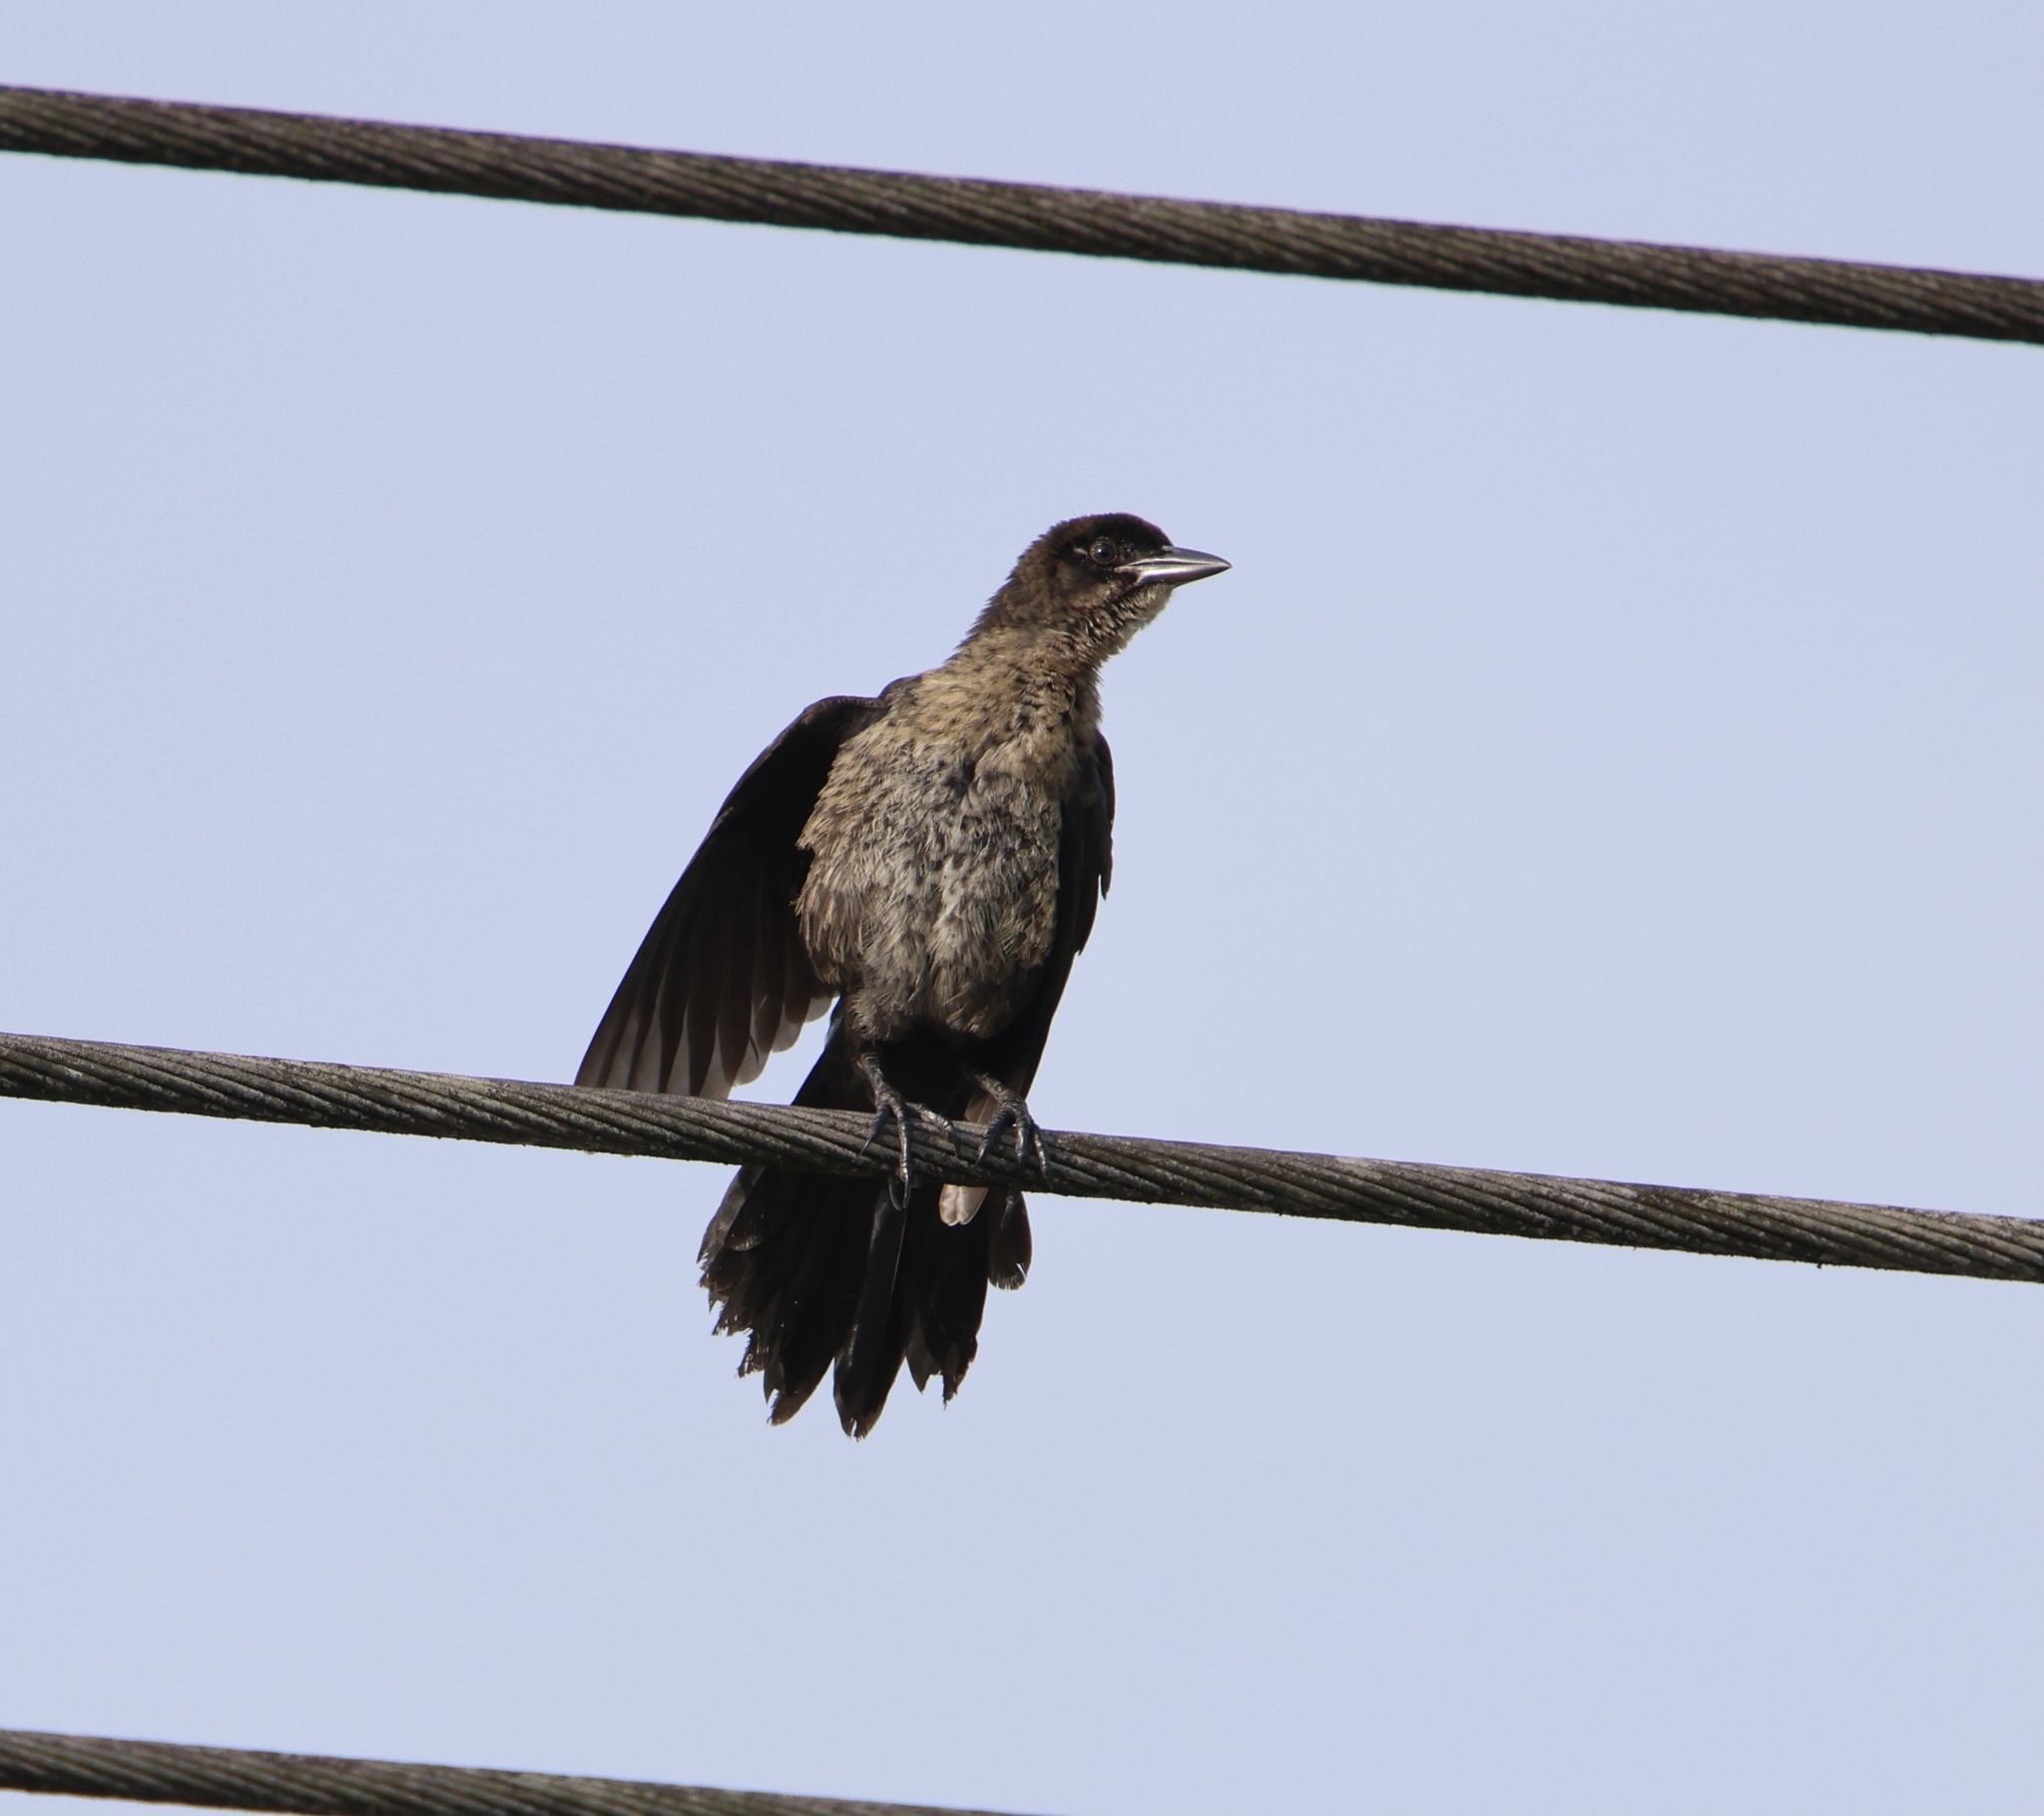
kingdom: Animalia
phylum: Chordata
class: Aves
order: Passeriformes
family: Icteridae
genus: Quiscalus
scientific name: Quiscalus mexicanus
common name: Great-tailed grackle
